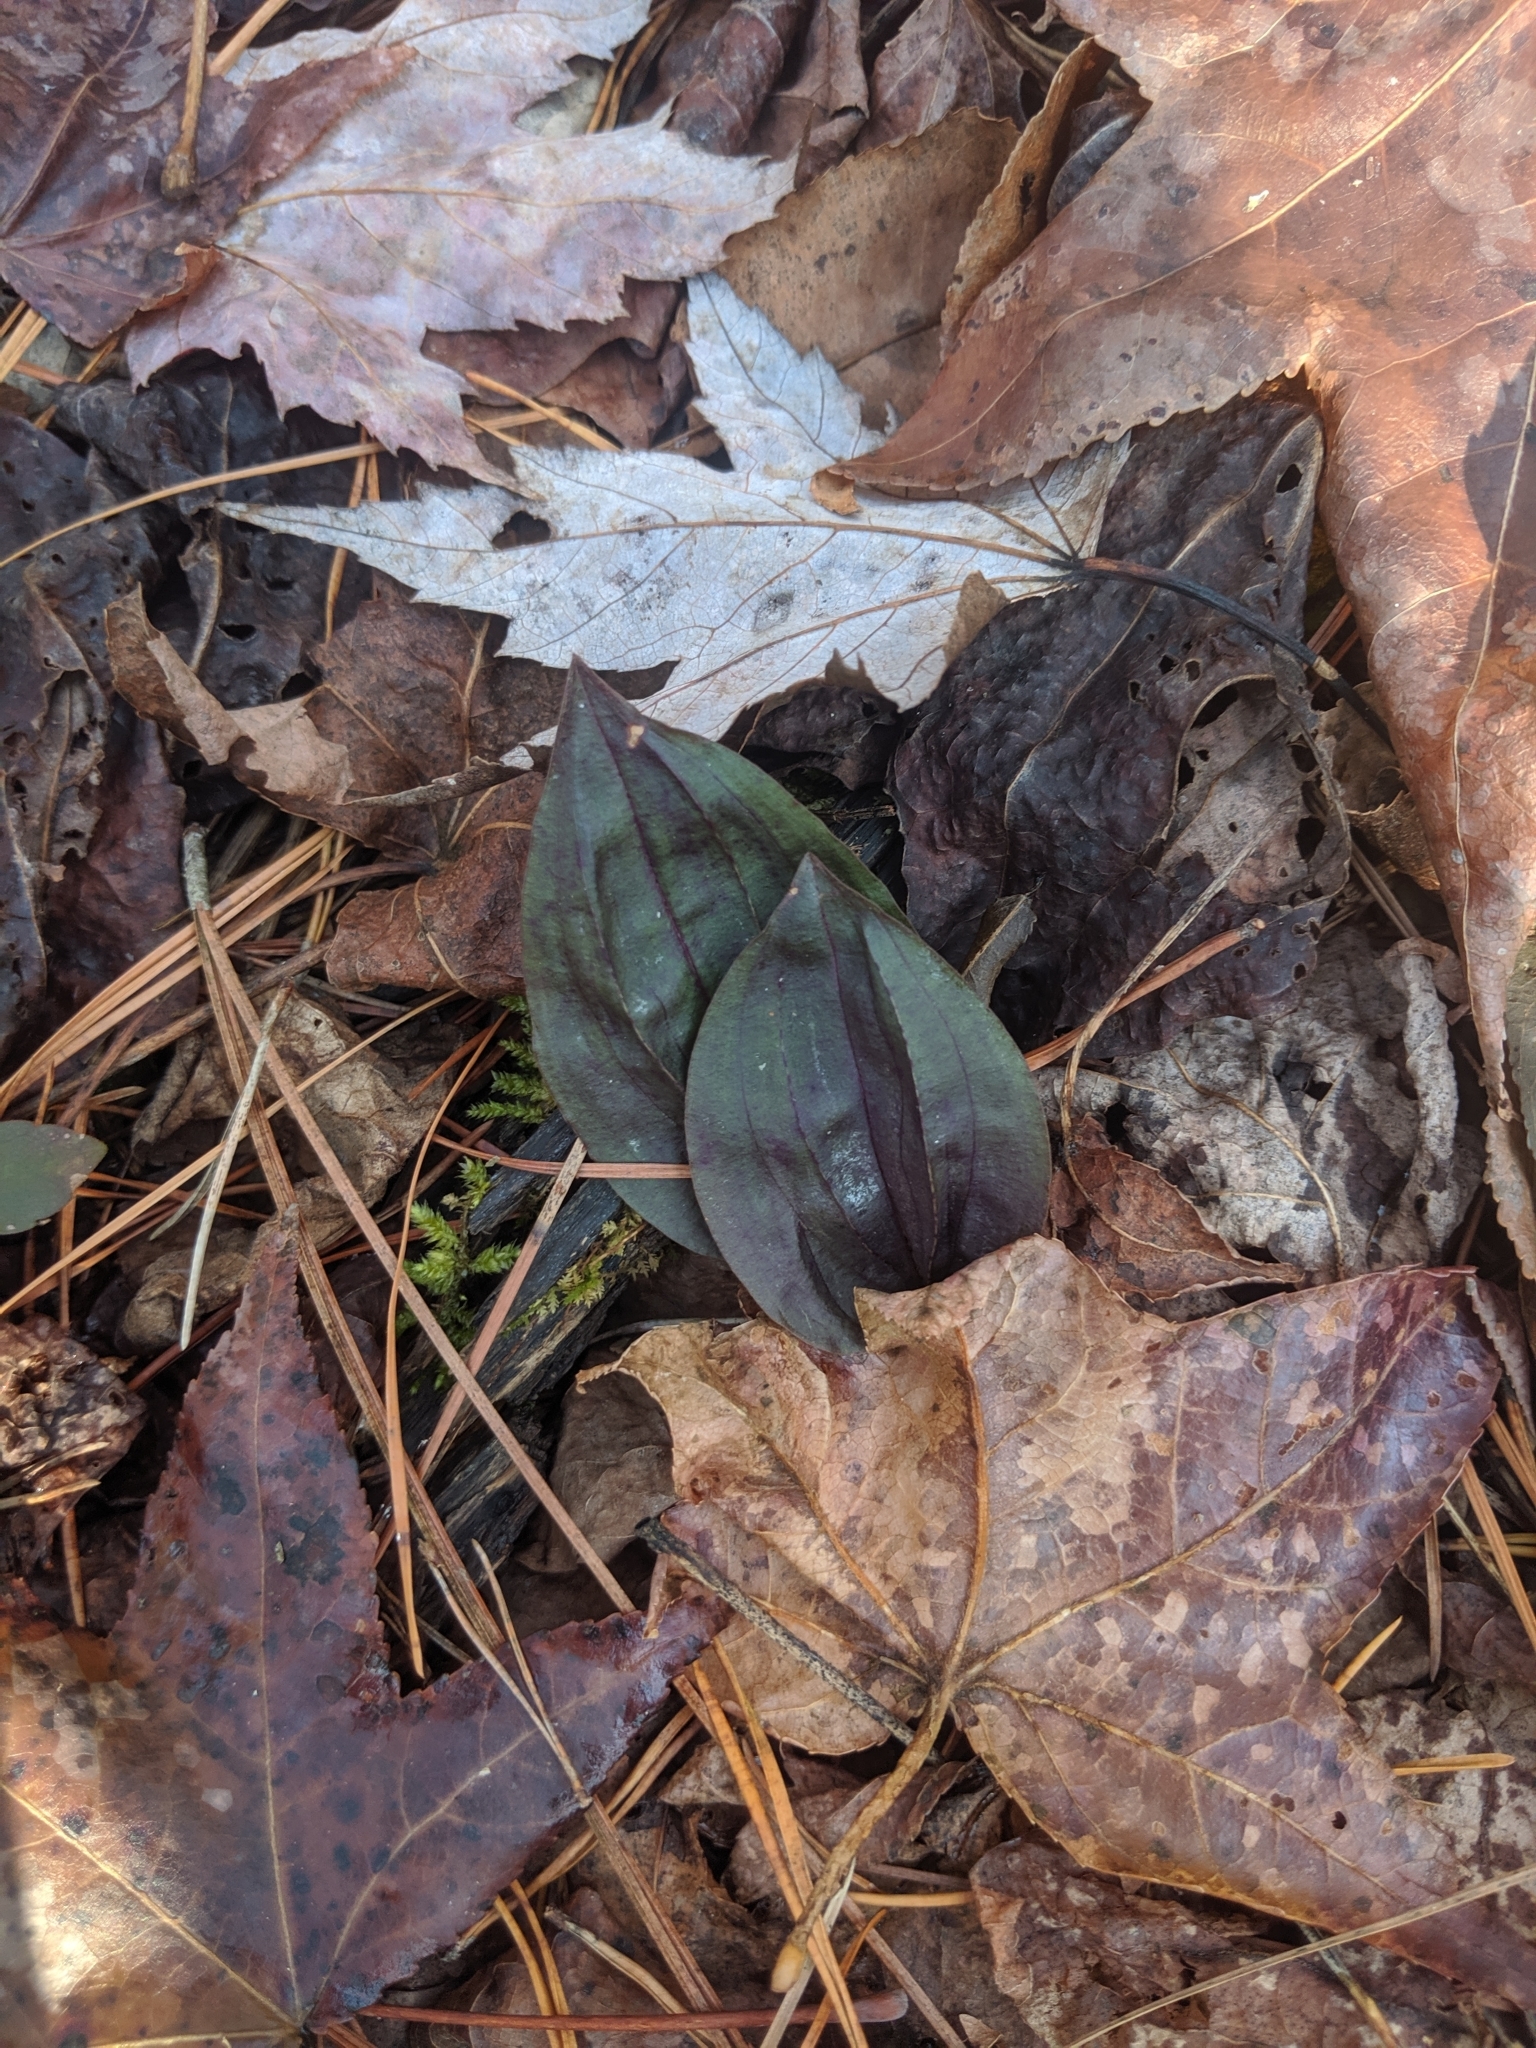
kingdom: Plantae
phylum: Tracheophyta
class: Liliopsida
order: Asparagales
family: Orchidaceae
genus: Tipularia
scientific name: Tipularia discolor
